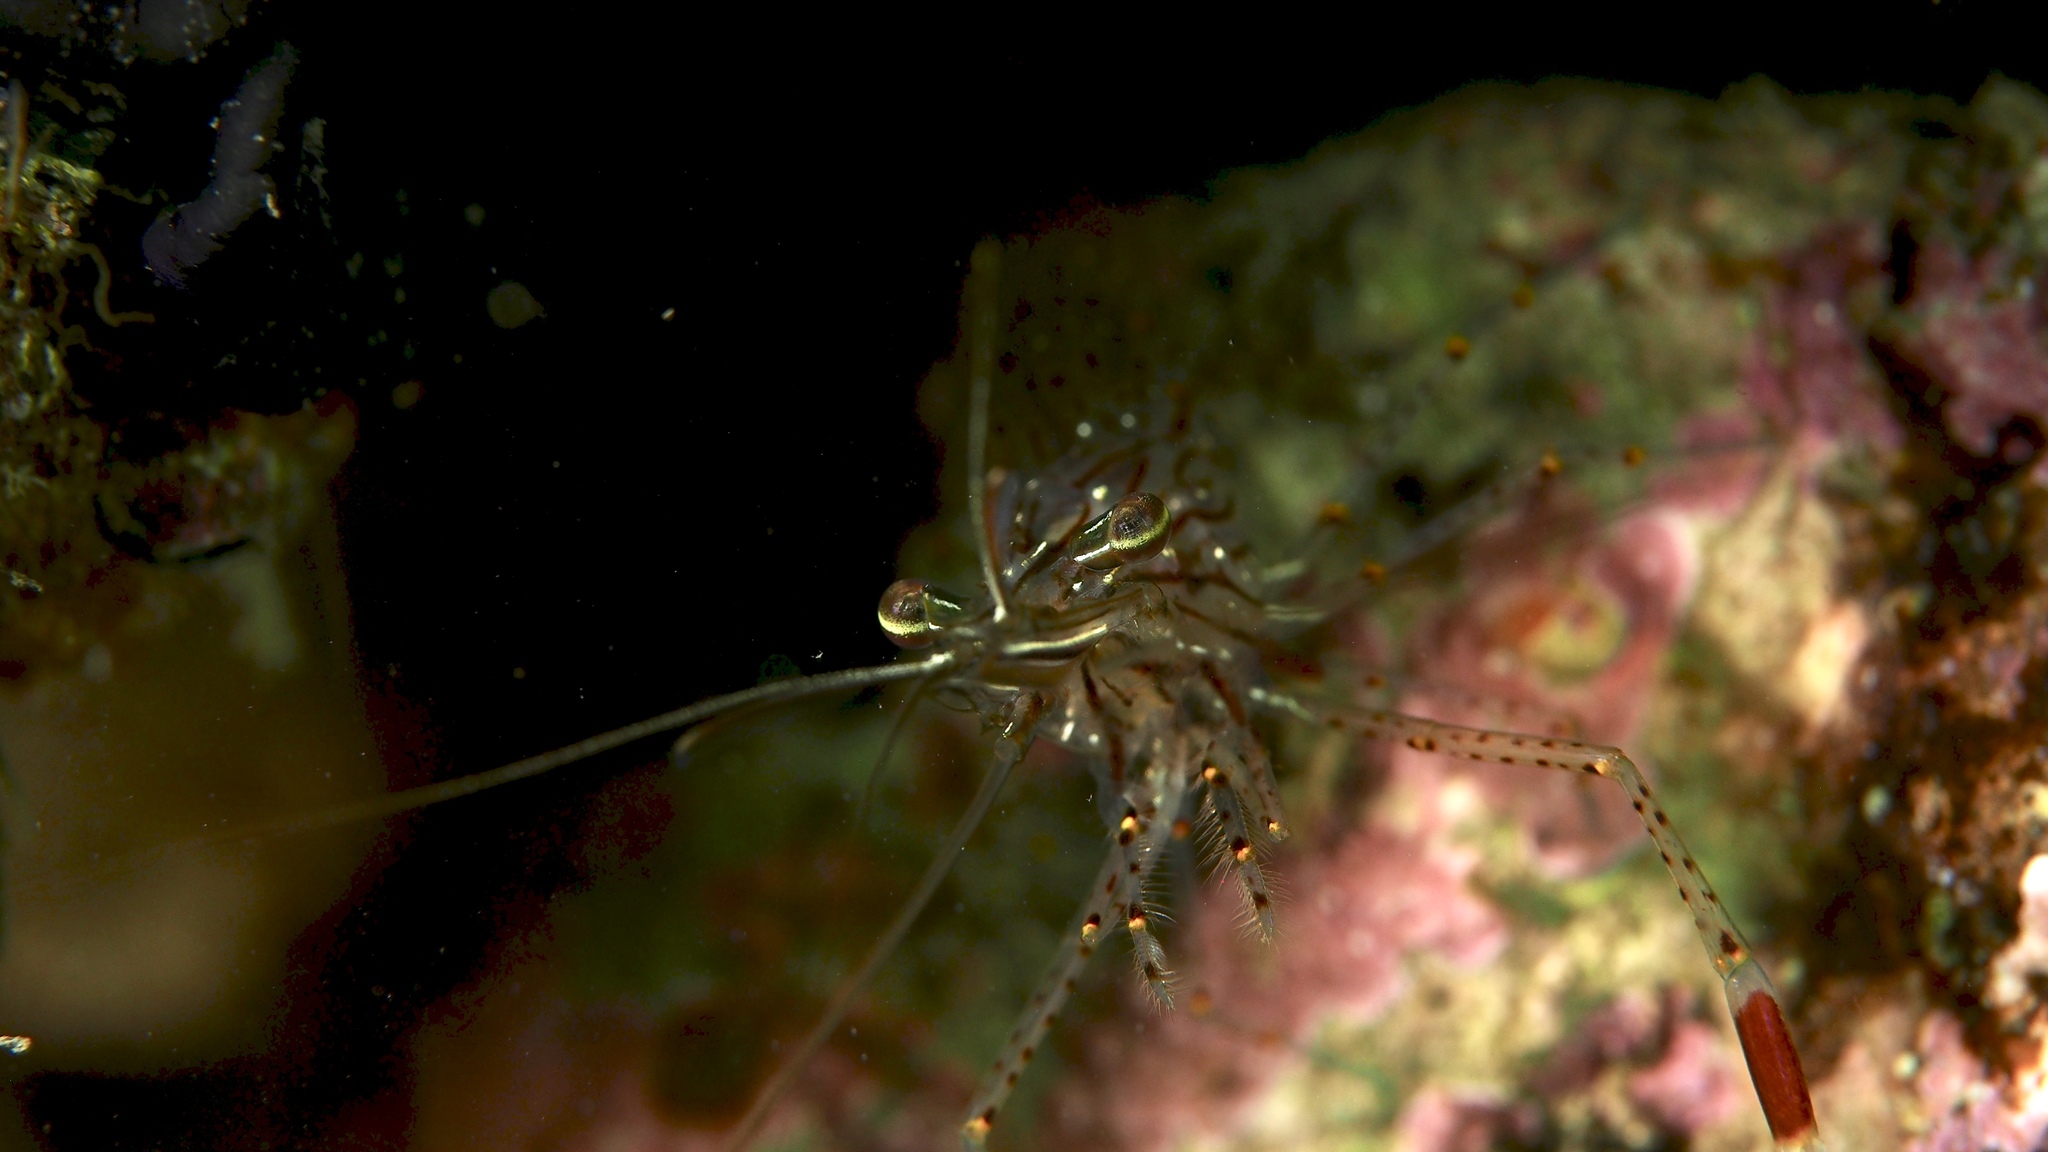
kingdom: Animalia
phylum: Arthropoda
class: Malacostraca
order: Decapoda
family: Palaemonidae
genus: Palaemon
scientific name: Palaemon serenus
